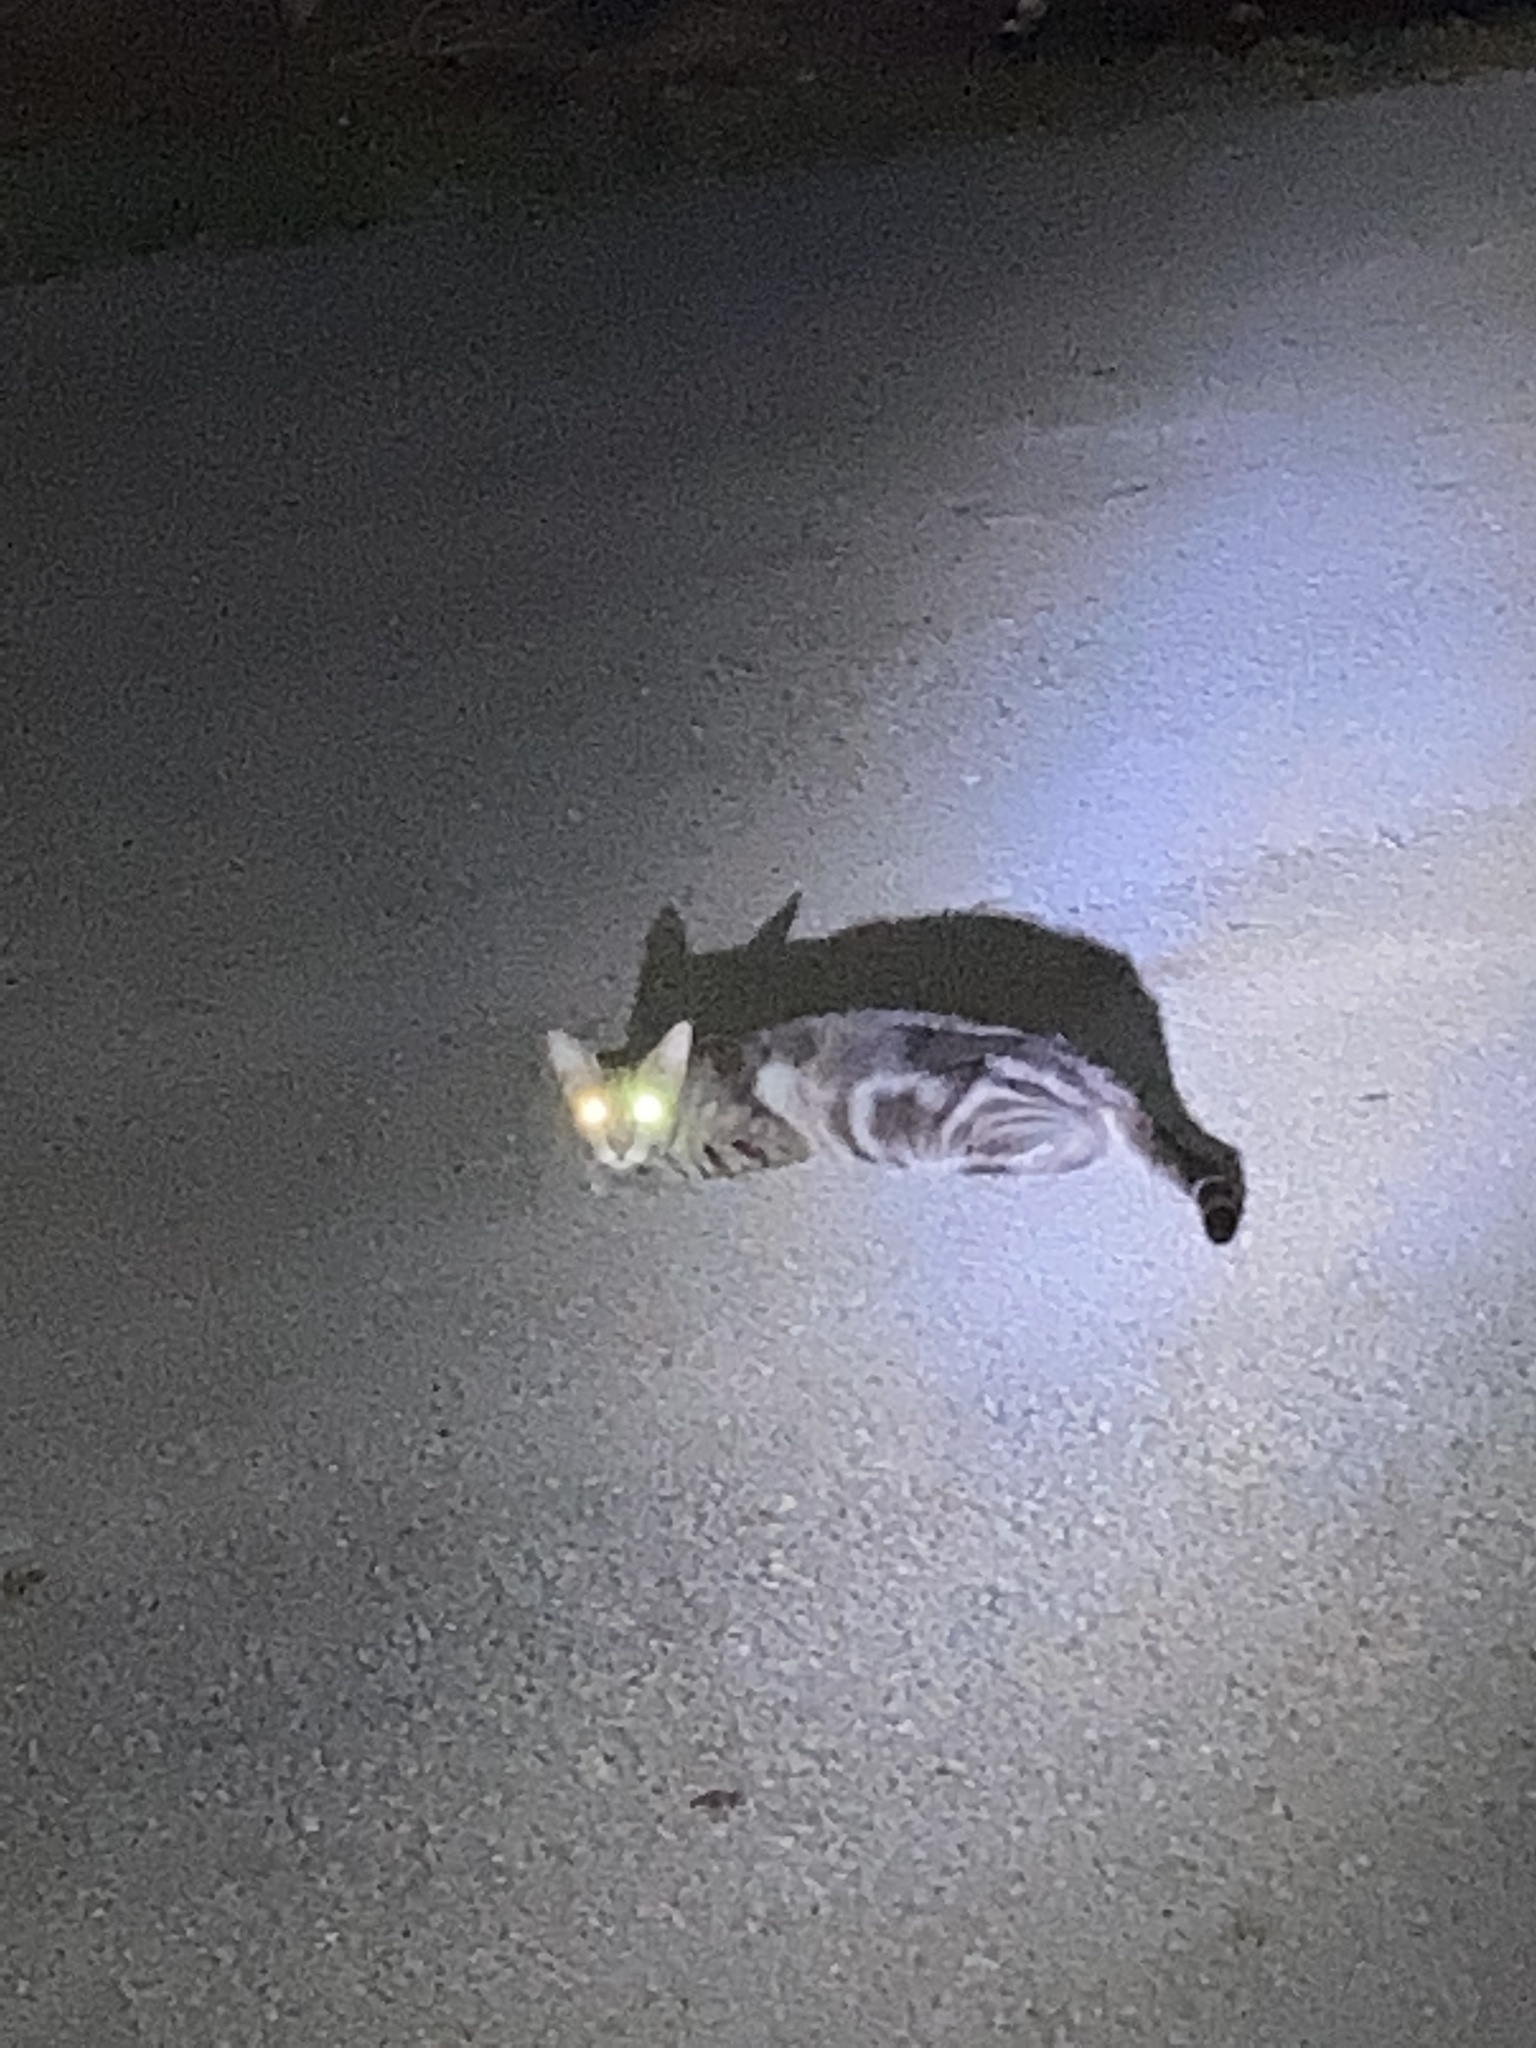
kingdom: Animalia
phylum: Chordata
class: Mammalia
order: Carnivora
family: Felidae
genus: Felis
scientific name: Felis catus
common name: Domestic cat
